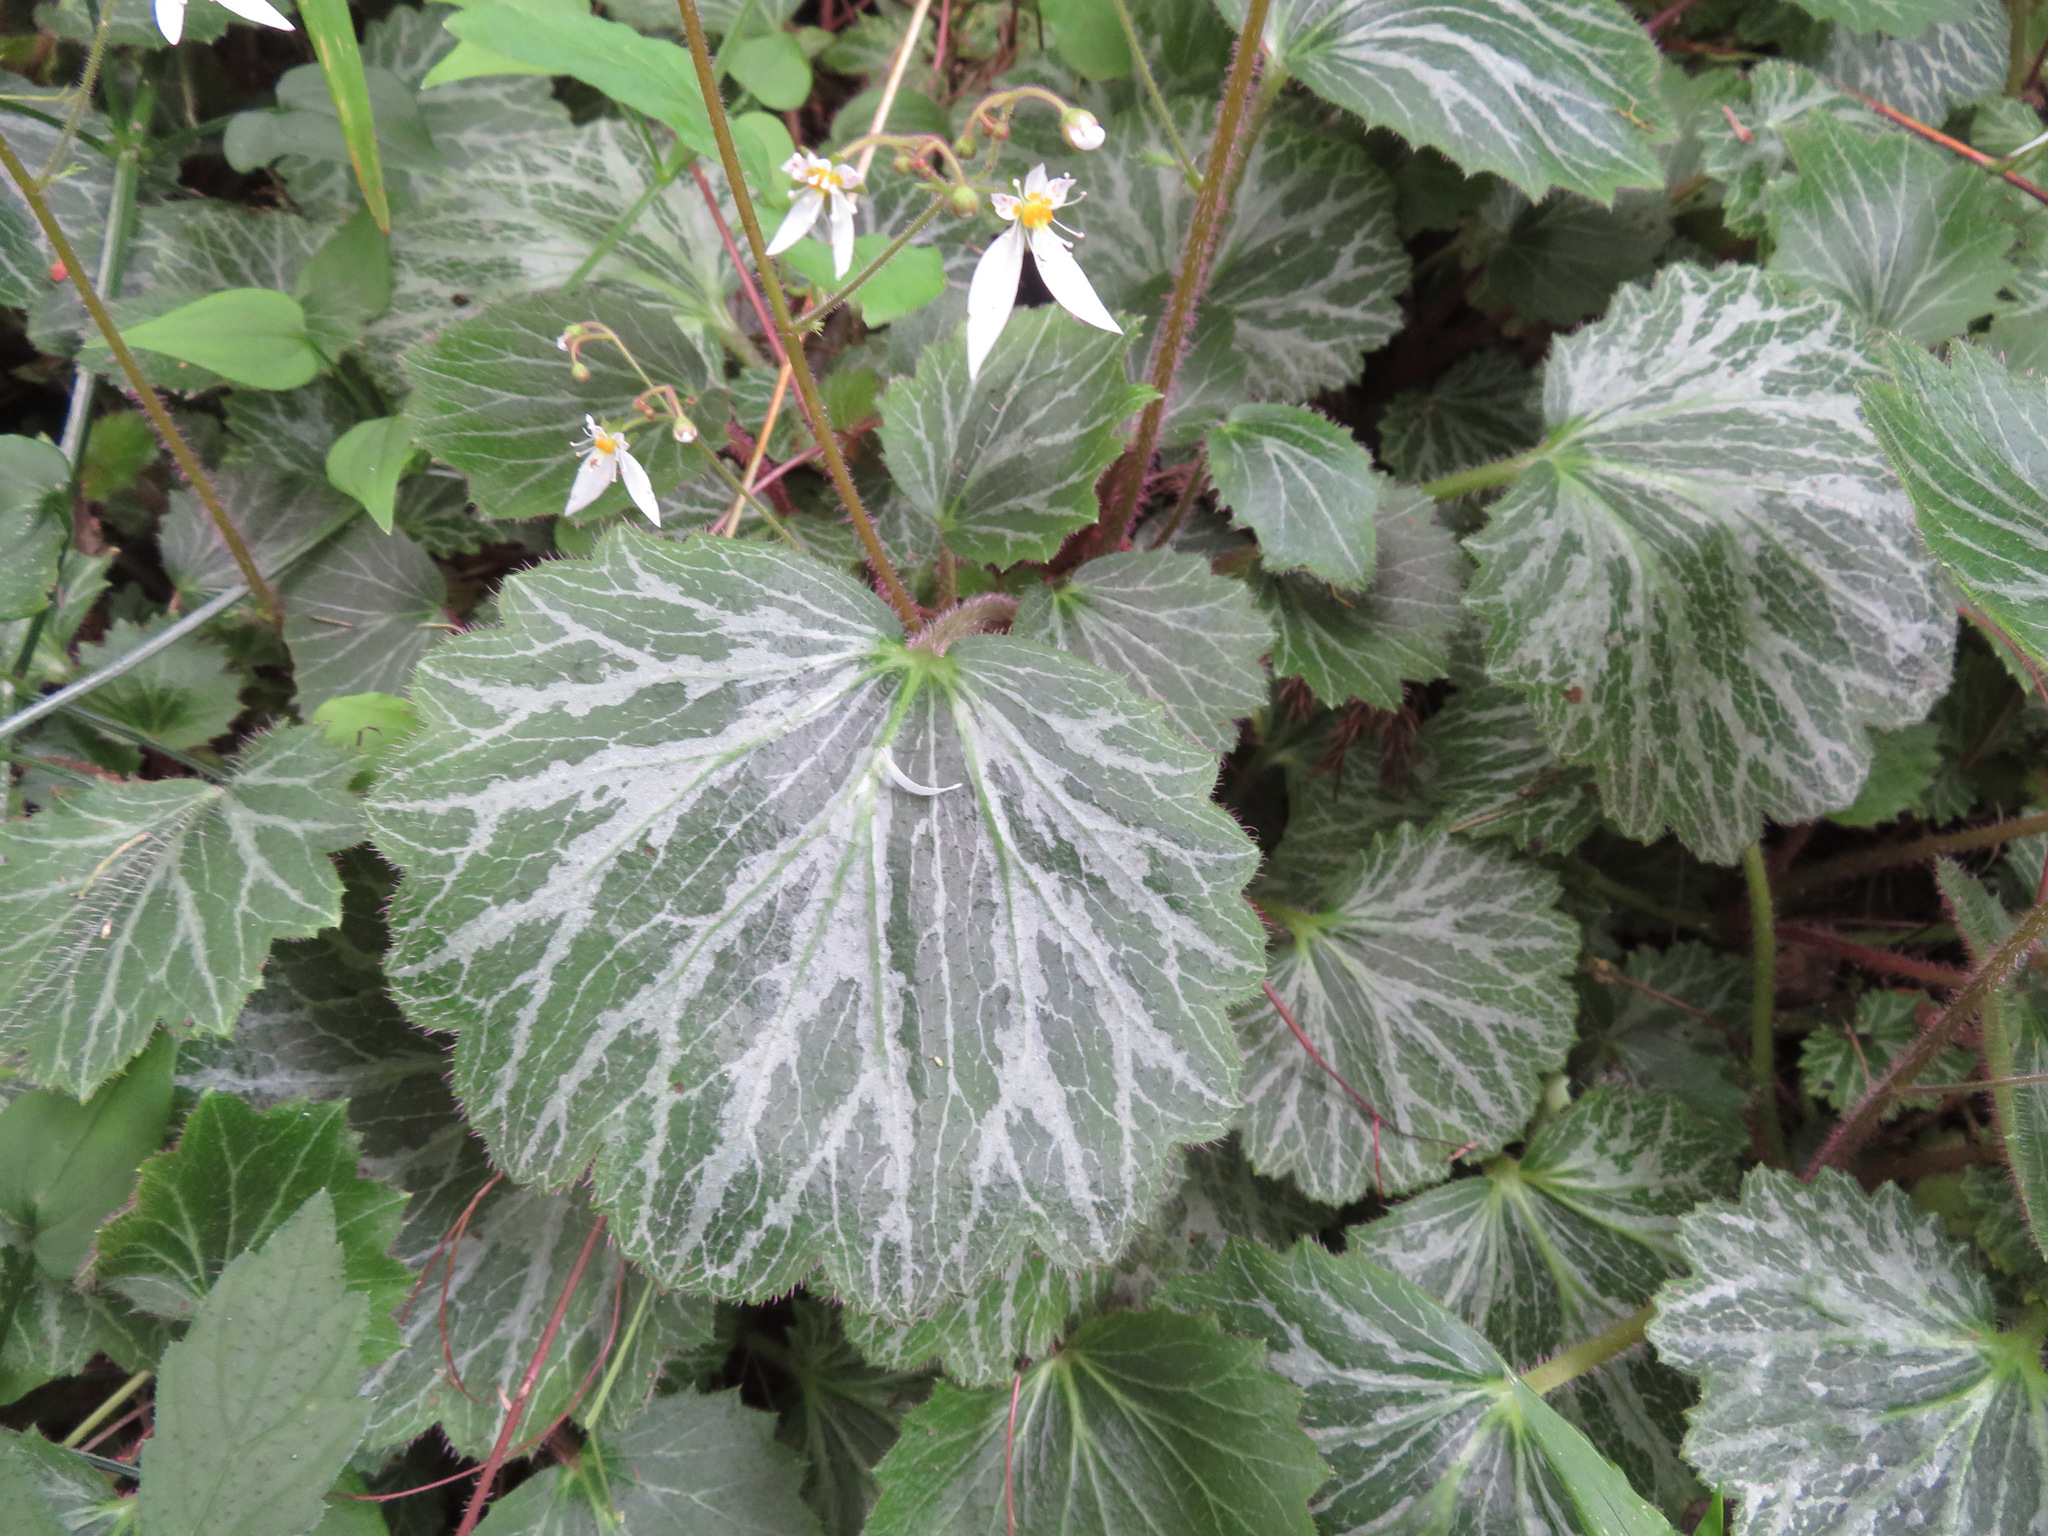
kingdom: Plantae
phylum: Tracheophyta
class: Magnoliopsida
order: Saxifragales
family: Saxifragaceae
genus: Saxifraga
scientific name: Saxifraga stolonifera
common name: Creeping saxifrage
